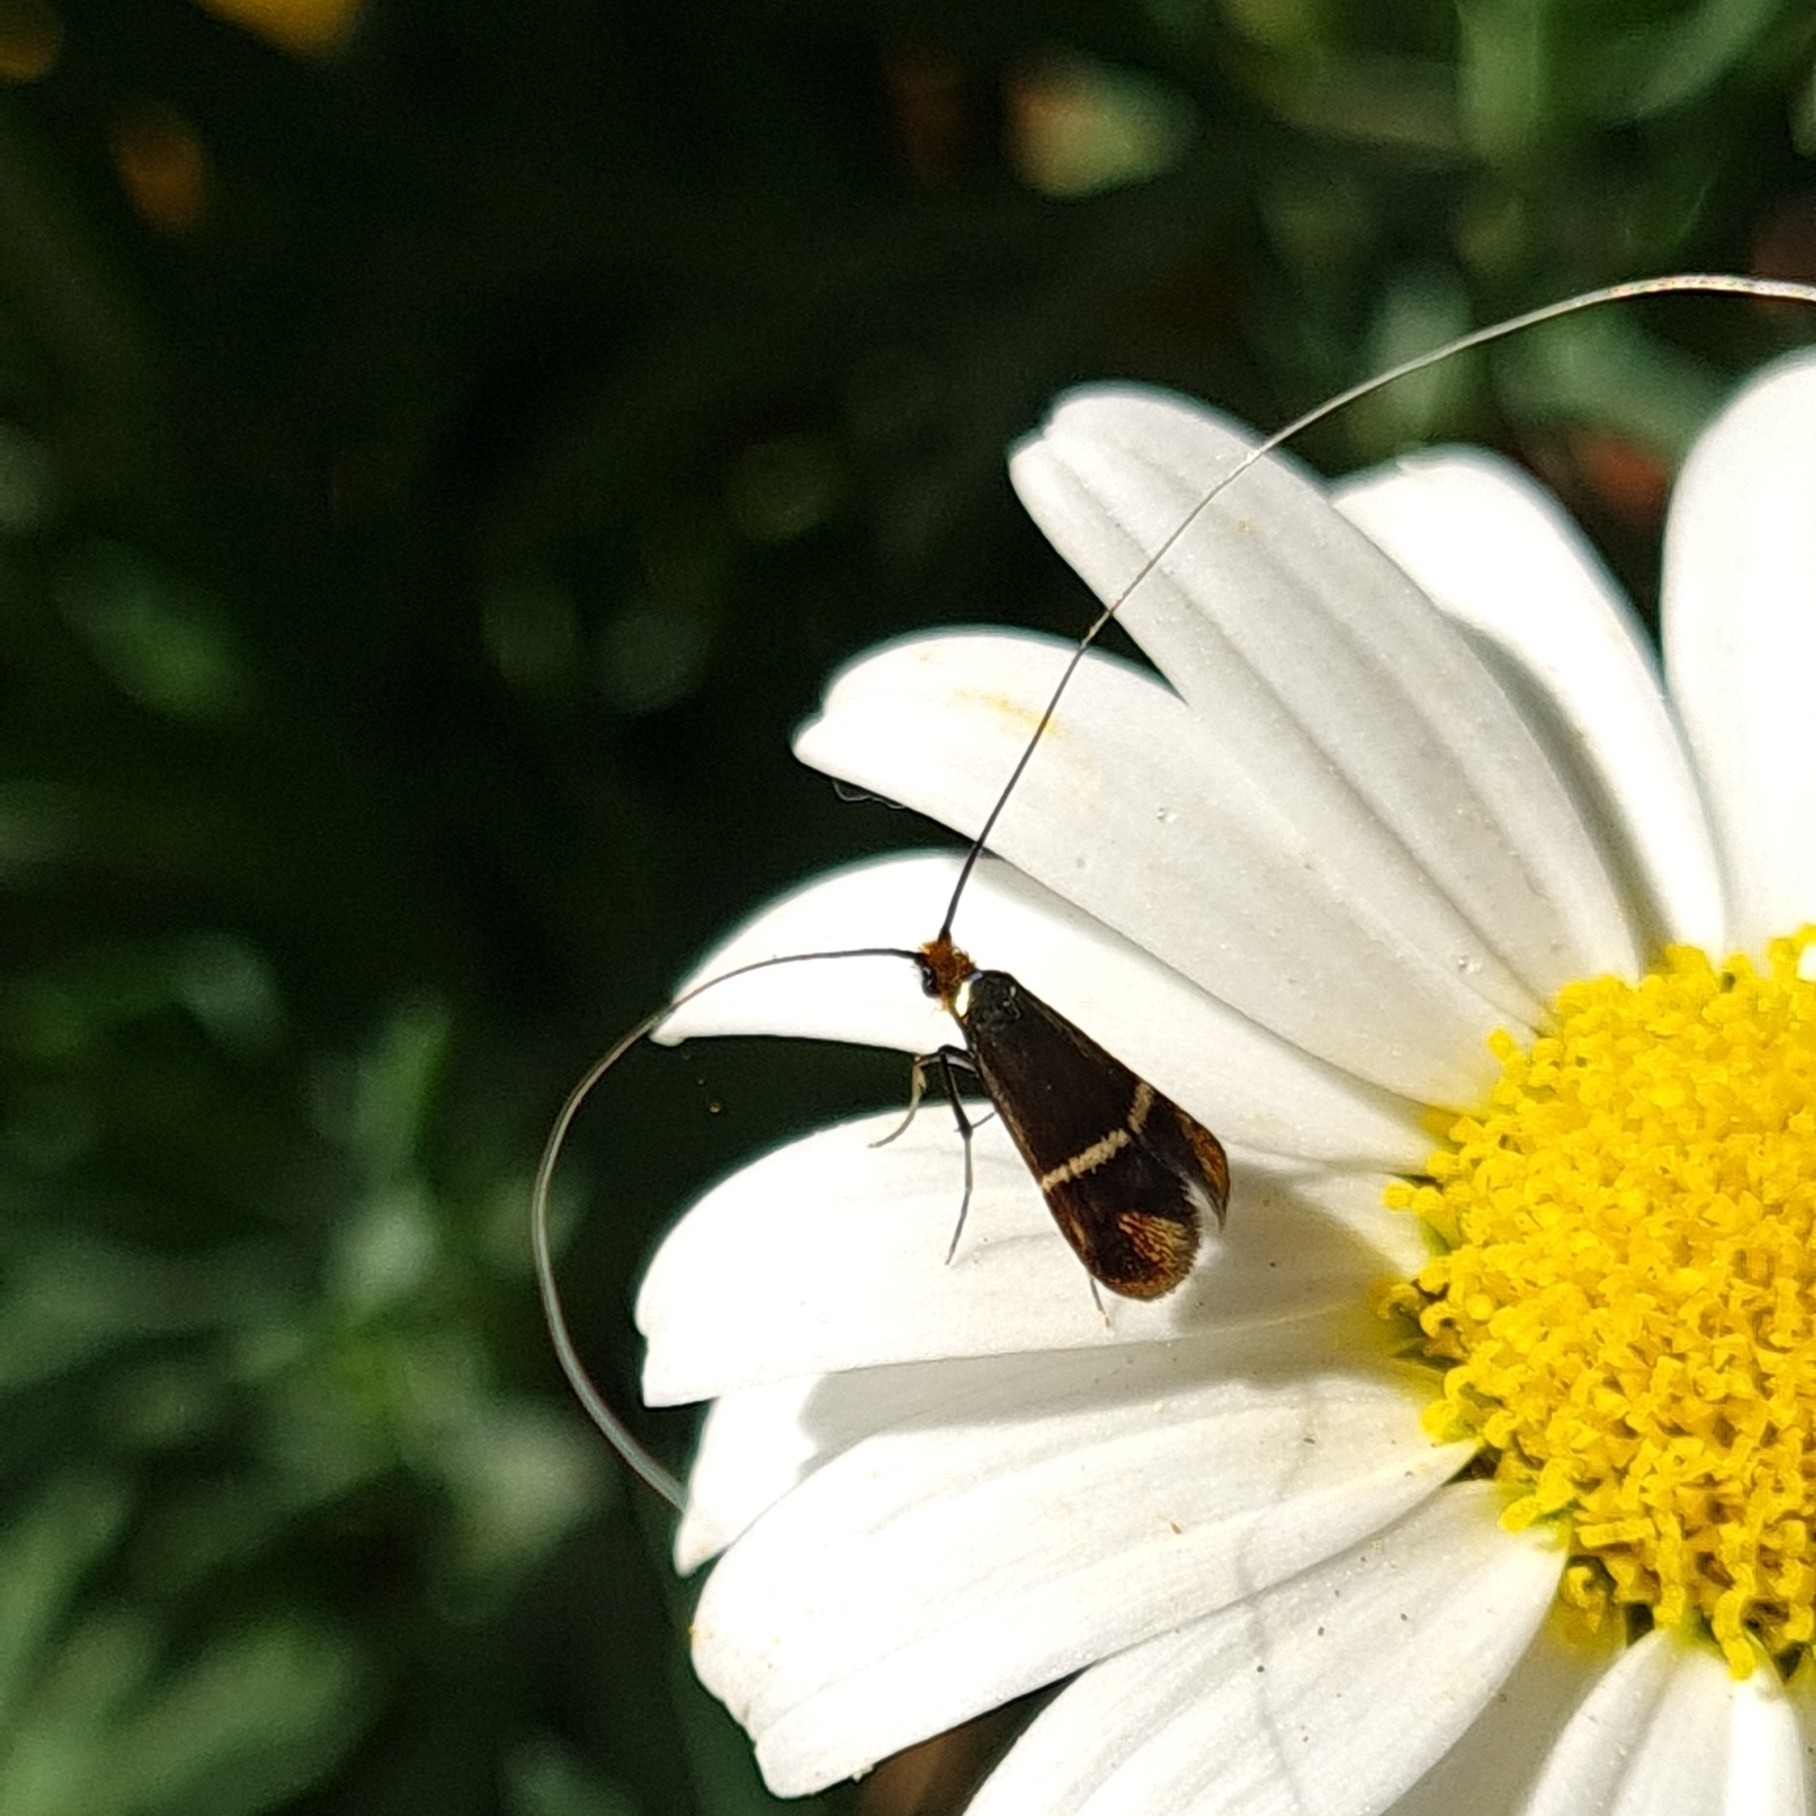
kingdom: Animalia
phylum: Arthropoda
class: Insecta
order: Lepidoptera
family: Adelidae
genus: Adela
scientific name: Adela australis
